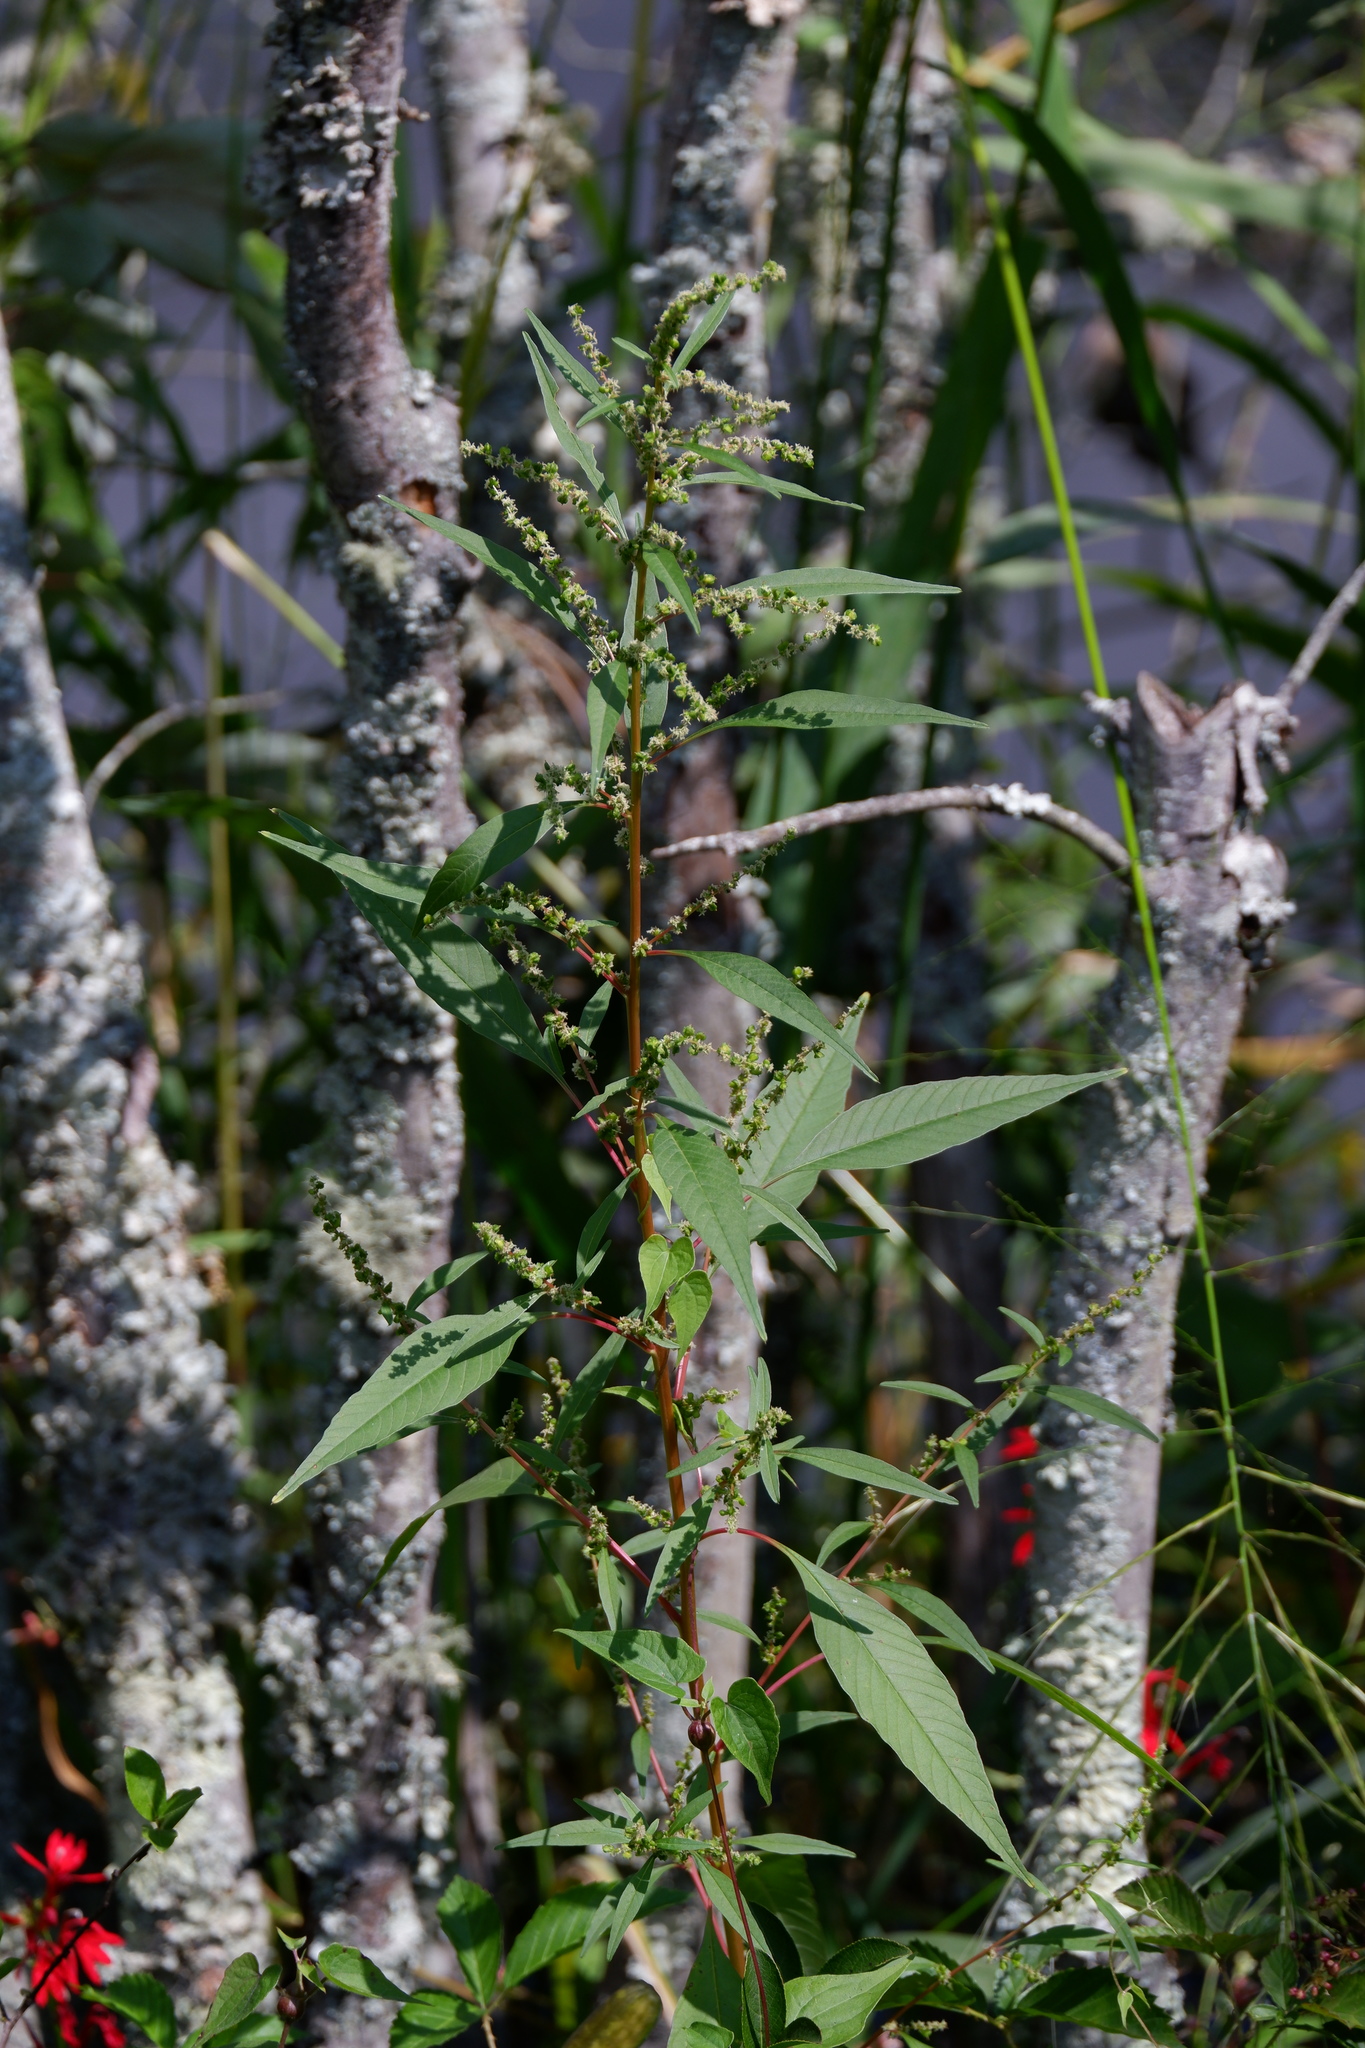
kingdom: Plantae
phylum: Tracheophyta
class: Magnoliopsida
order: Caryophyllales
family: Amaranthaceae
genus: Amaranthus
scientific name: Amaranthus cannabinus
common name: Salt-marsh water-hemp
